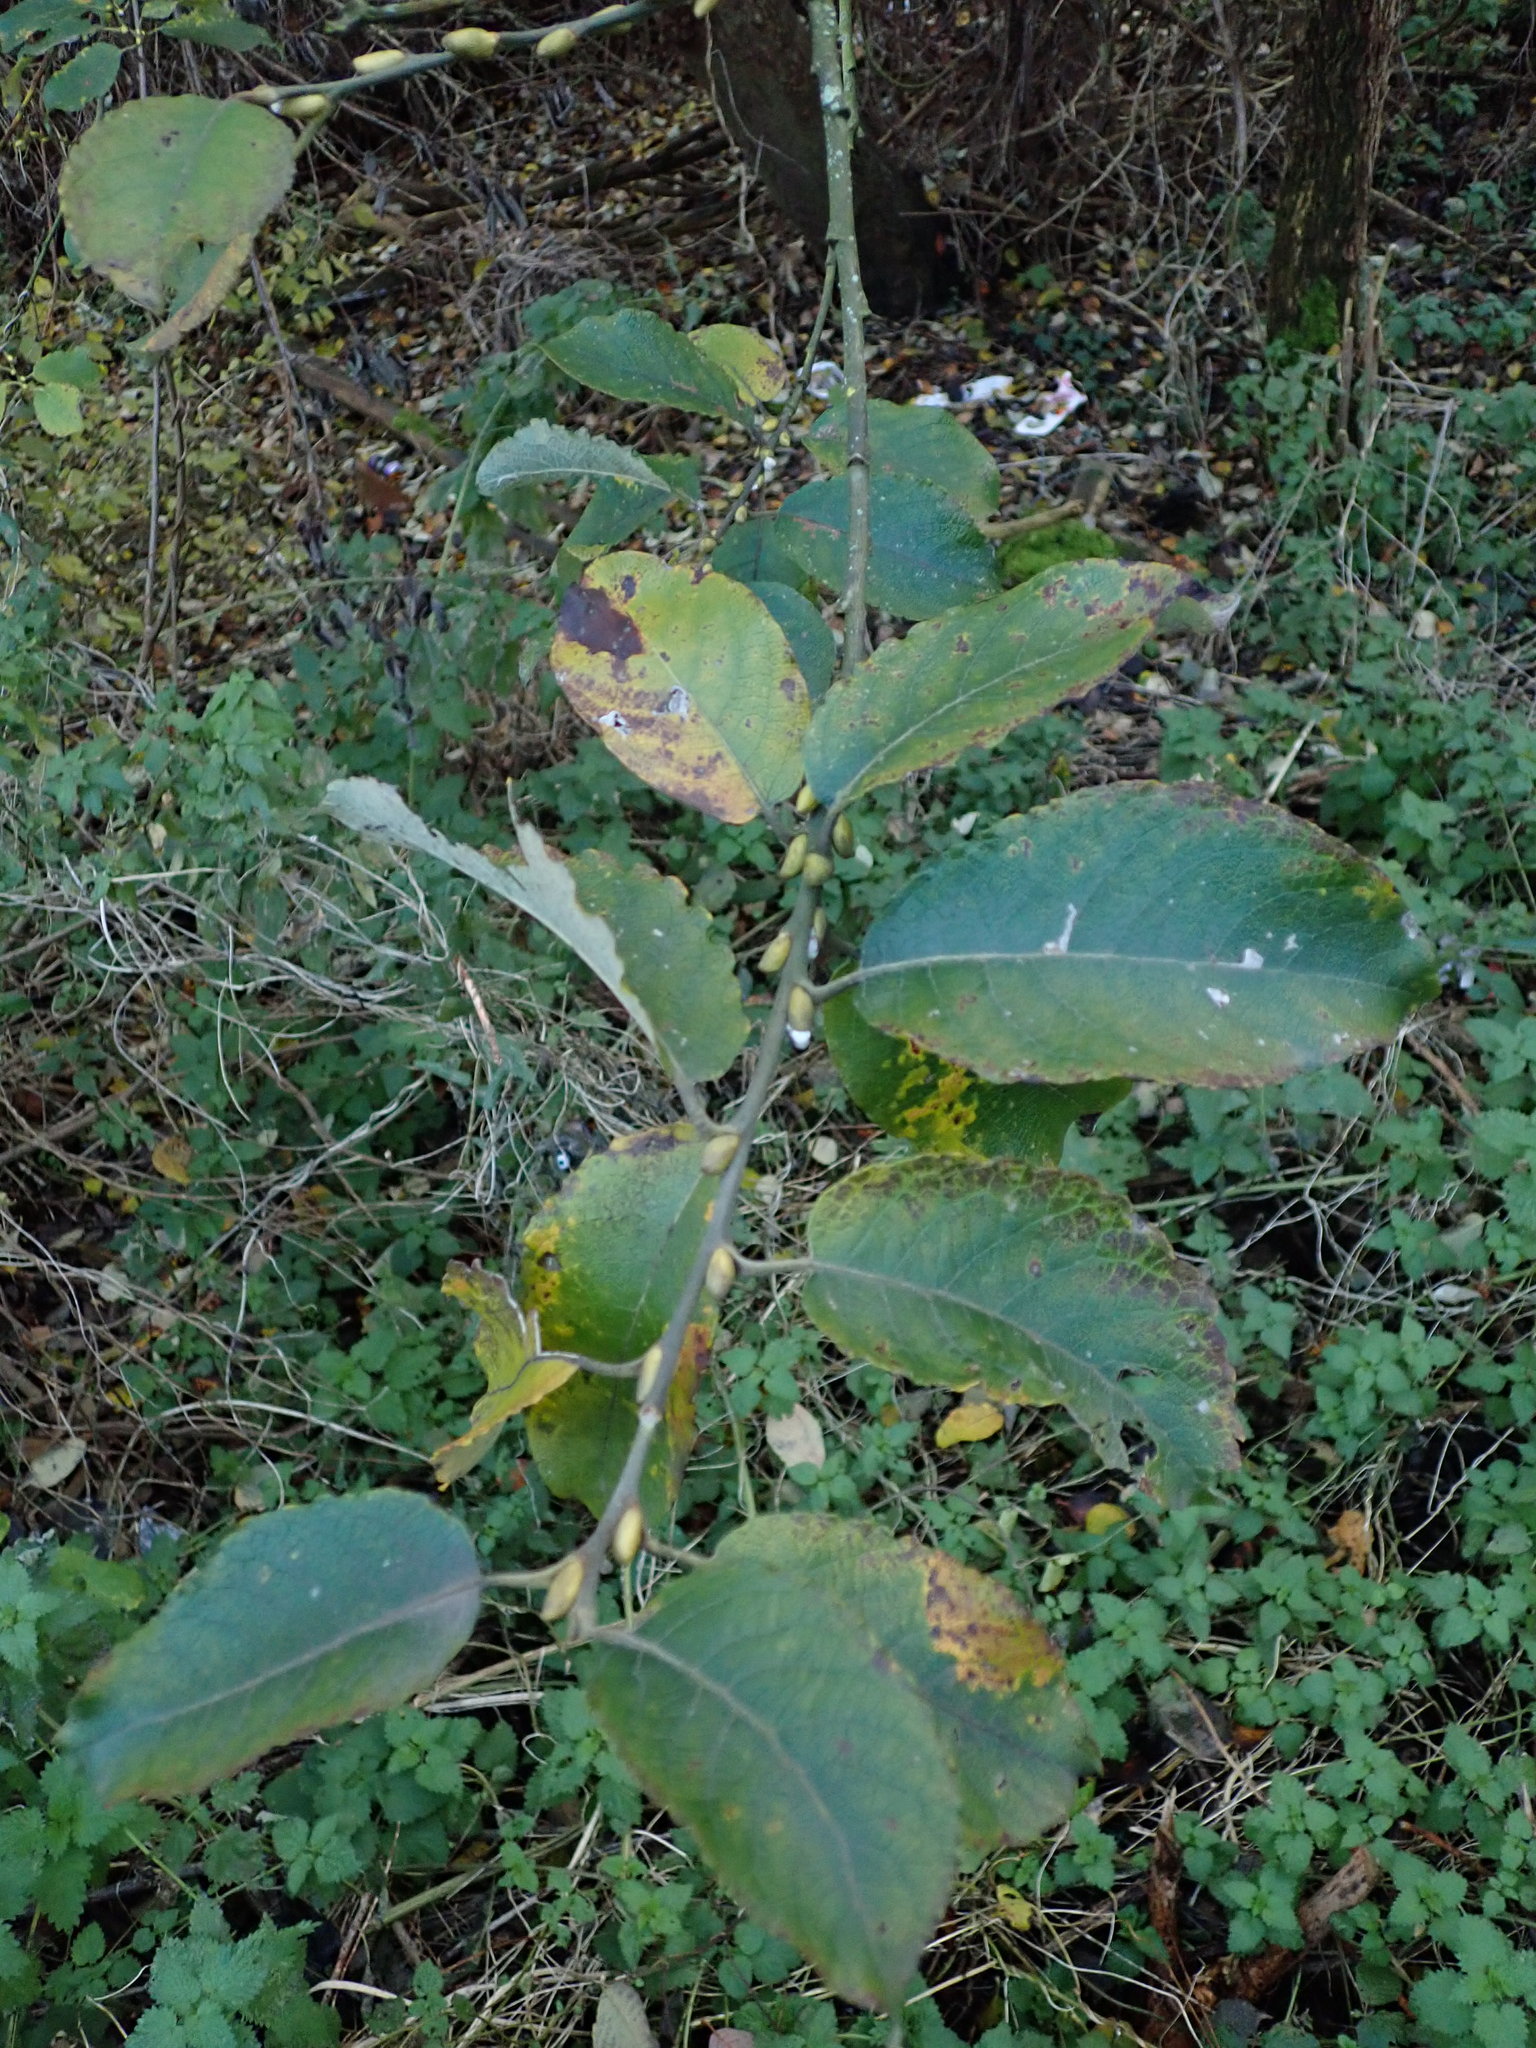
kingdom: Plantae
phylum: Tracheophyta
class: Magnoliopsida
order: Malpighiales
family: Salicaceae
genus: Salix
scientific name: Salix caprea
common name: Goat willow
